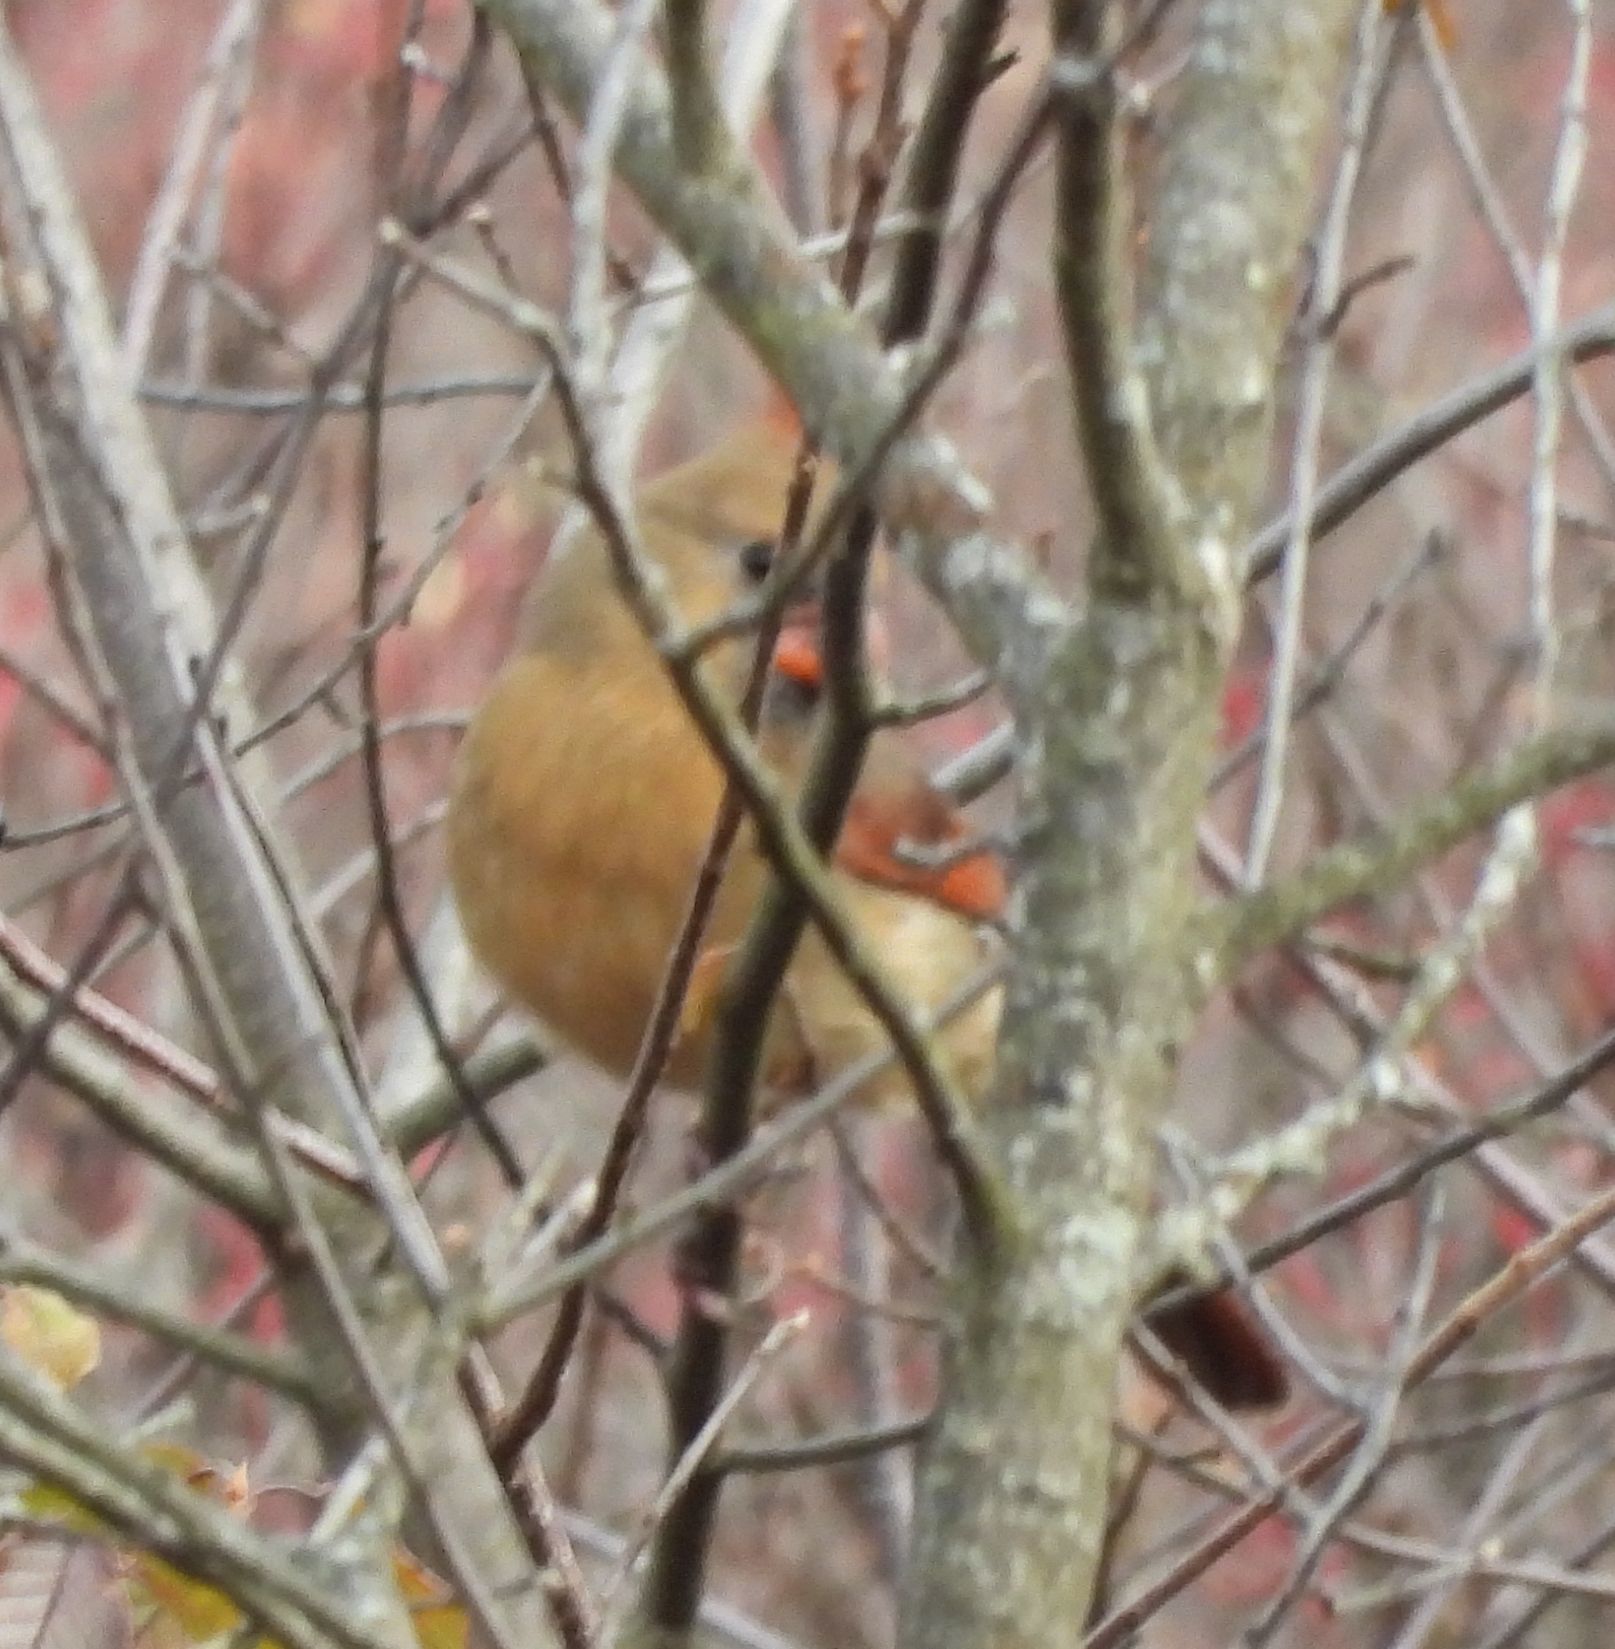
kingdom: Animalia
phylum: Chordata
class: Aves
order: Passeriformes
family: Cardinalidae
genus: Cardinalis
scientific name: Cardinalis cardinalis
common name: Northern cardinal
